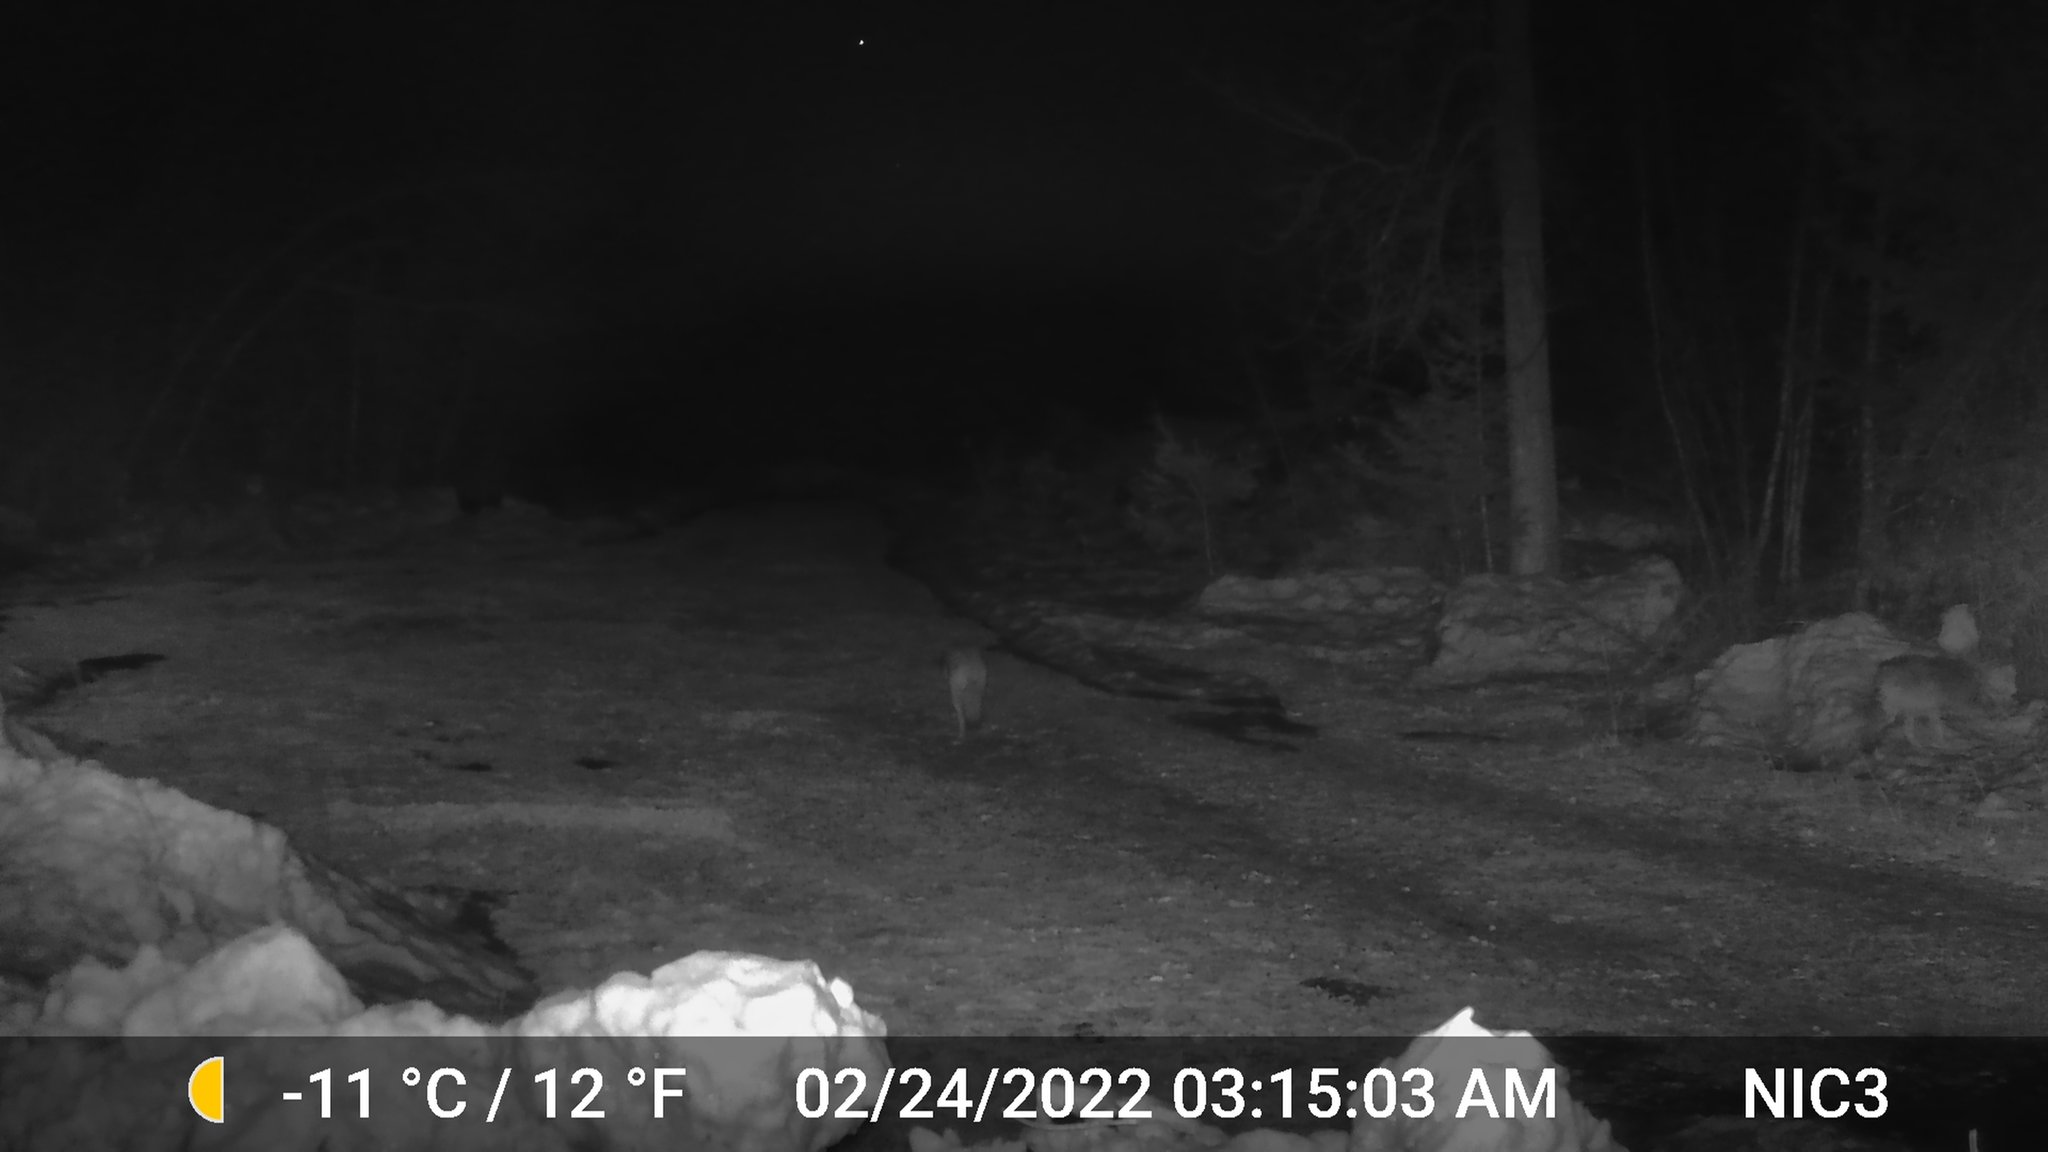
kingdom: Animalia
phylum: Chordata
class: Mammalia
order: Carnivora
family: Canidae
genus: Canis
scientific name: Canis latrans
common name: Coyote
